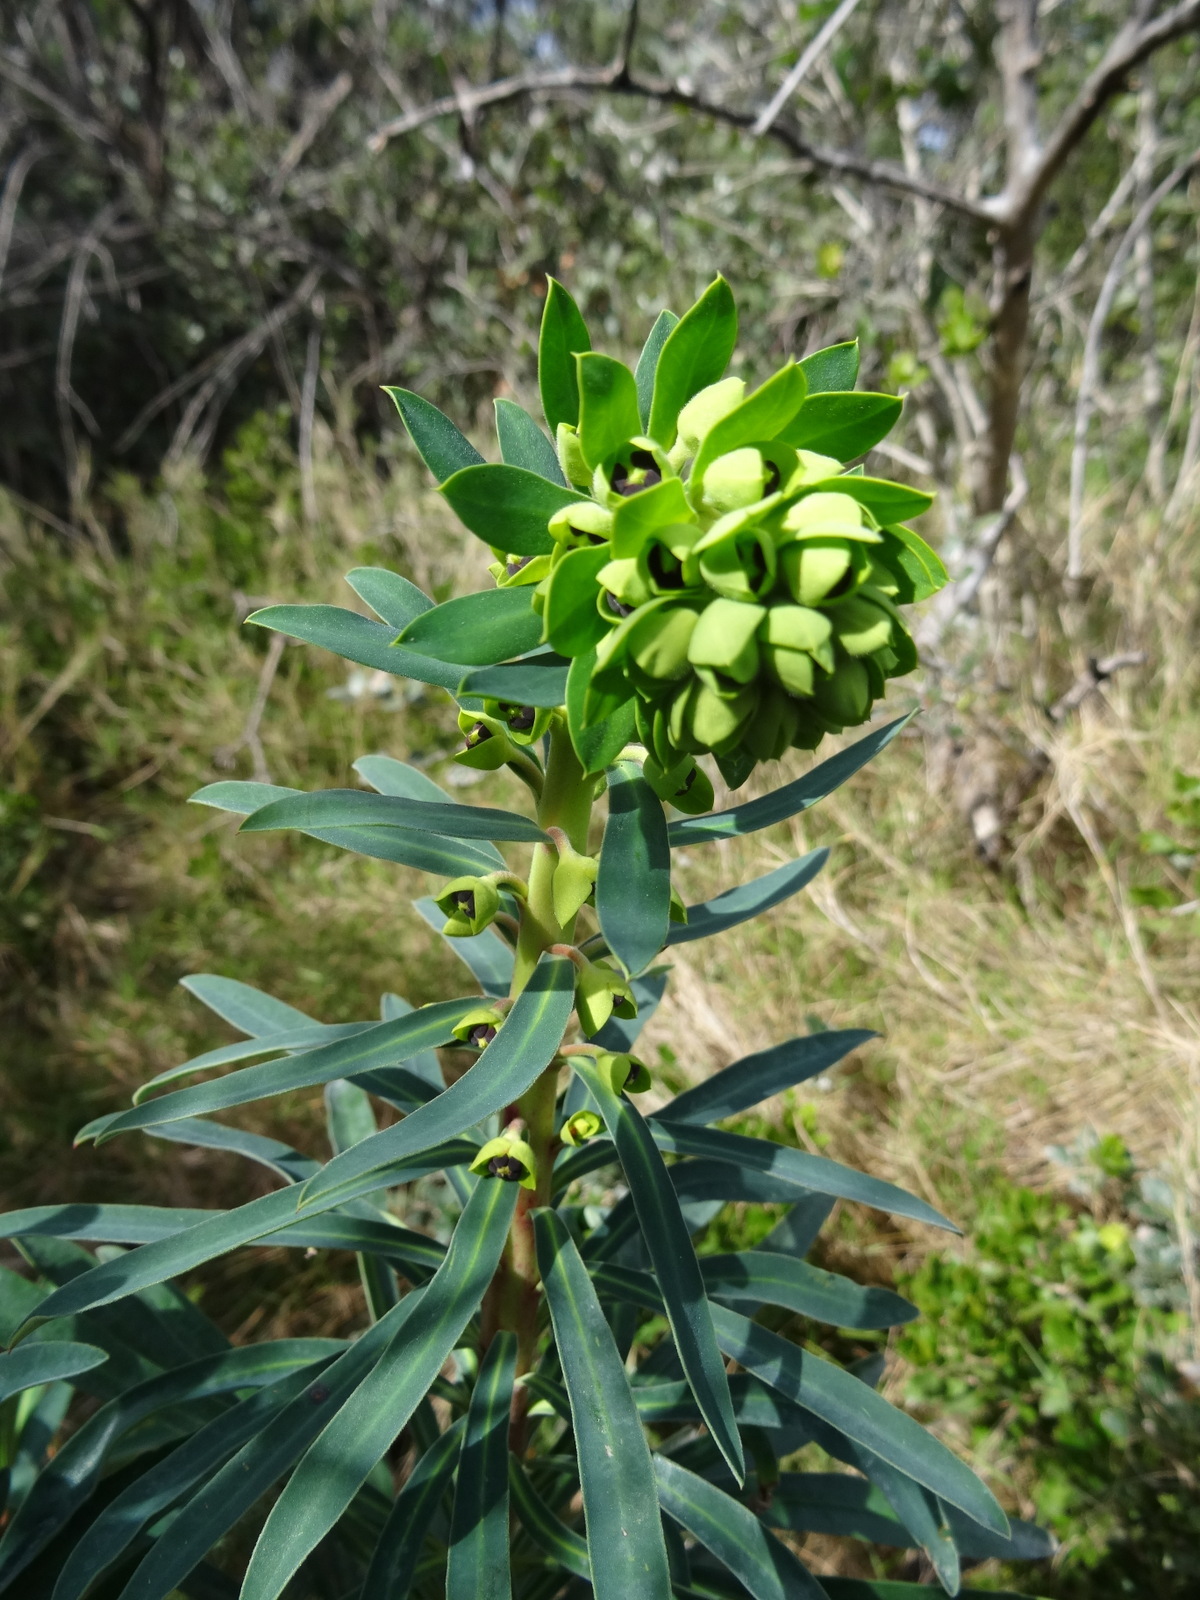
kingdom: Plantae
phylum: Tracheophyta
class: Magnoliopsida
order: Malpighiales
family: Euphorbiaceae
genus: Euphorbia
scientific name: Euphorbia characias
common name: Mediterranean spurge
